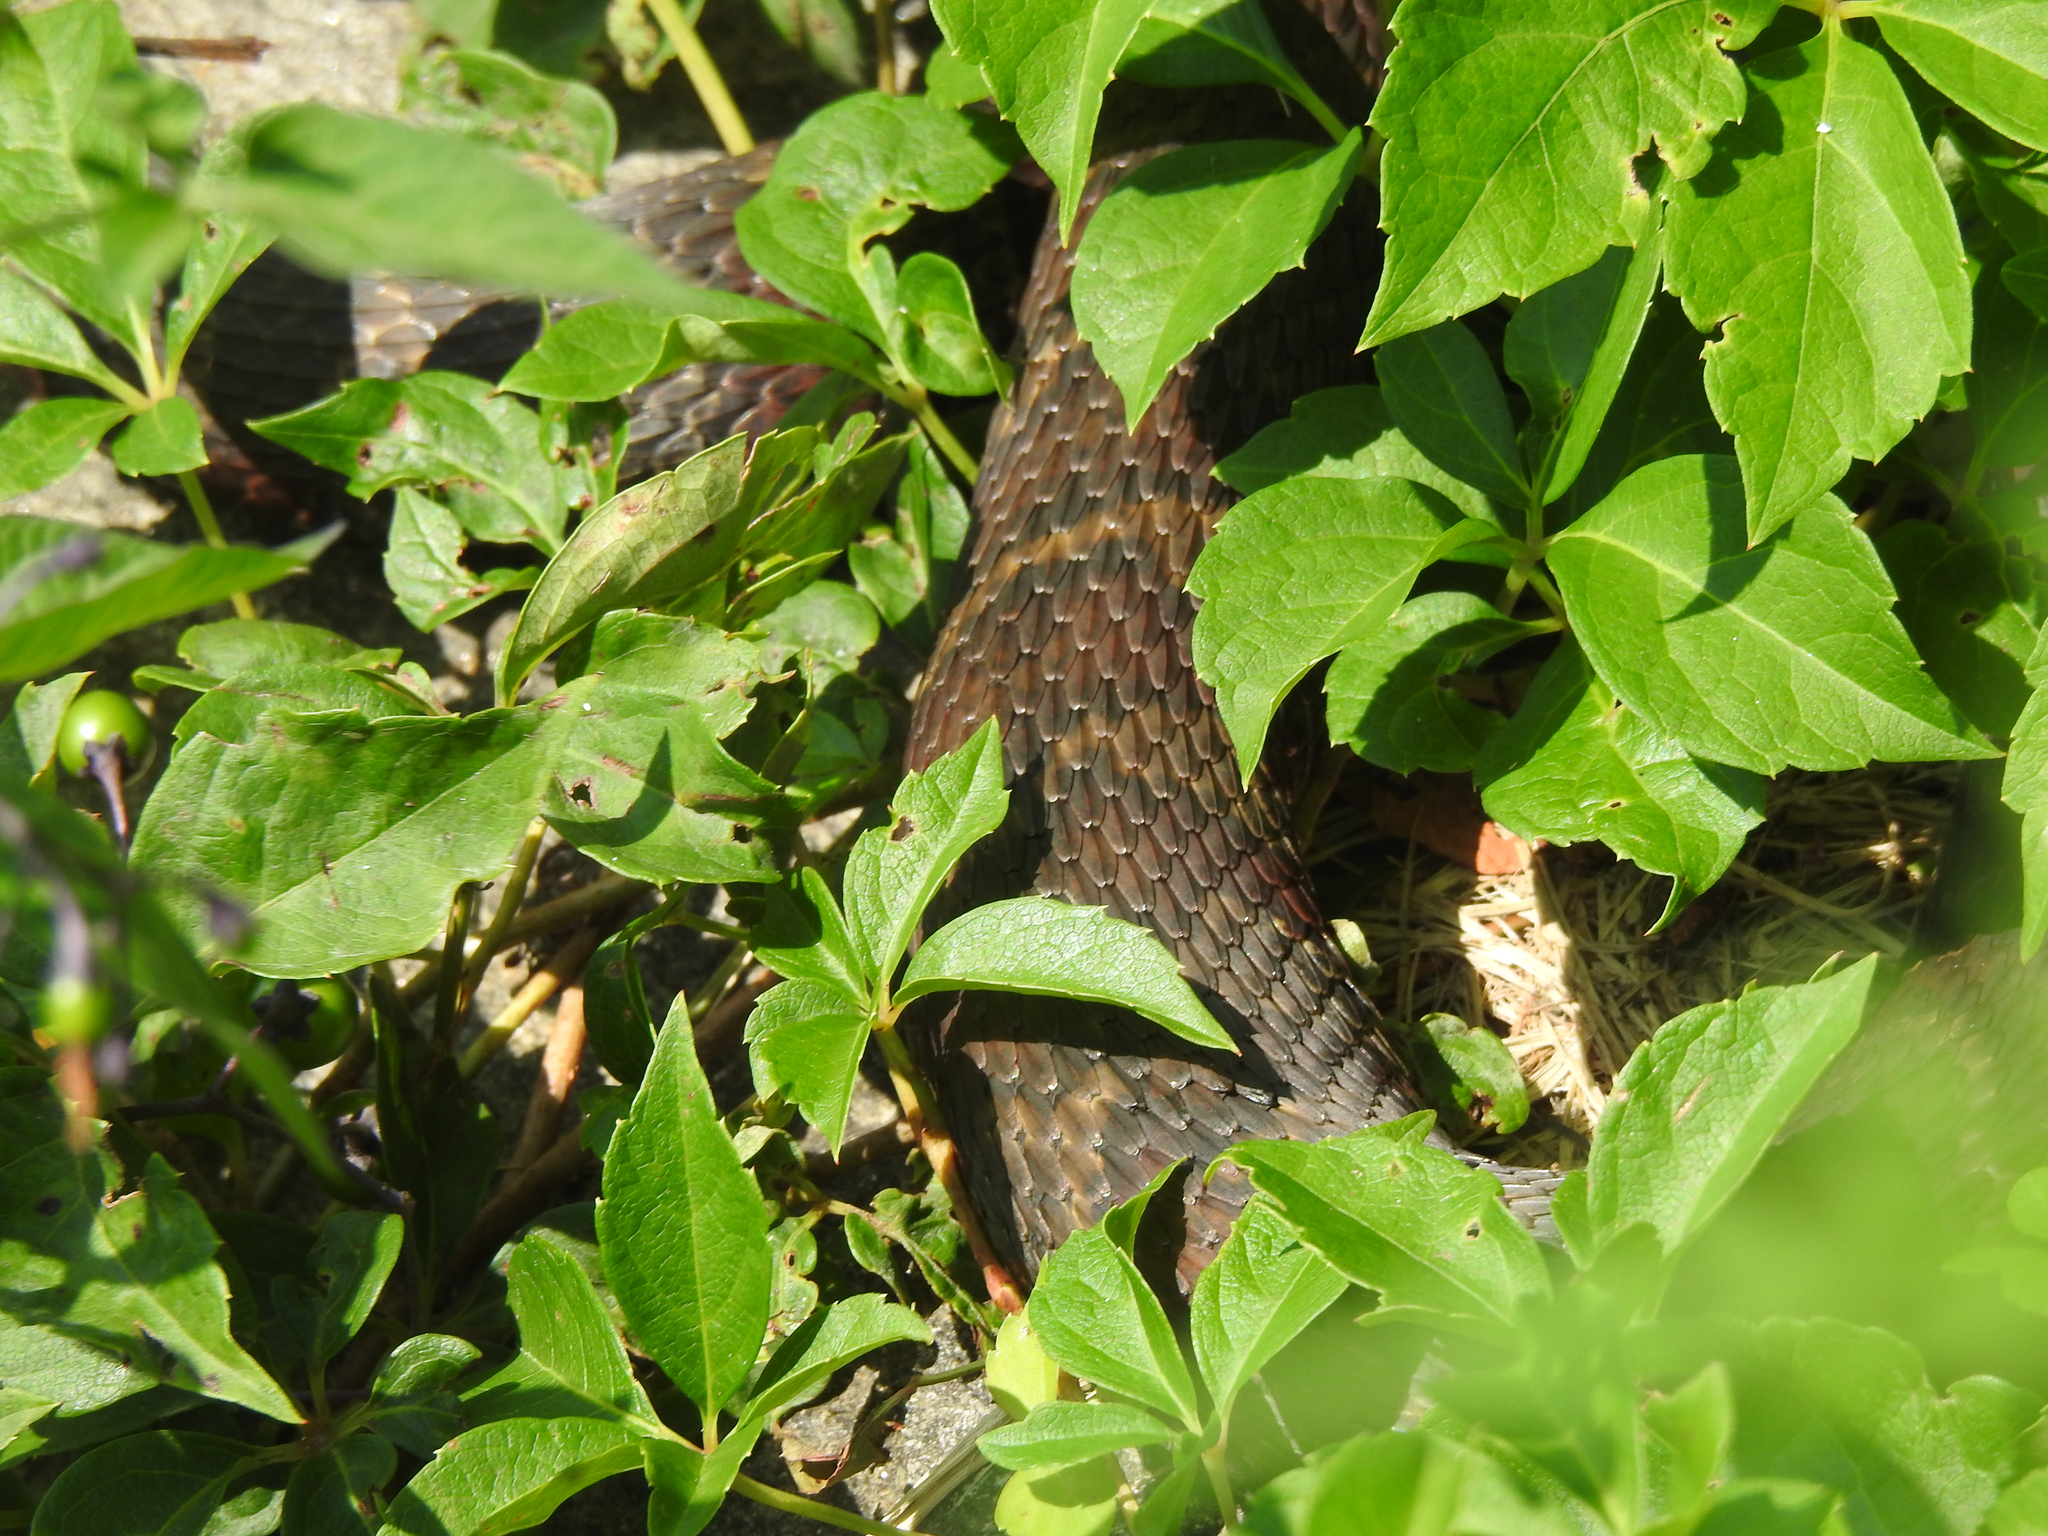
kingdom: Animalia
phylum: Chordata
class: Squamata
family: Colubridae
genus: Nerodia
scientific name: Nerodia sipedon
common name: Northern water snake
